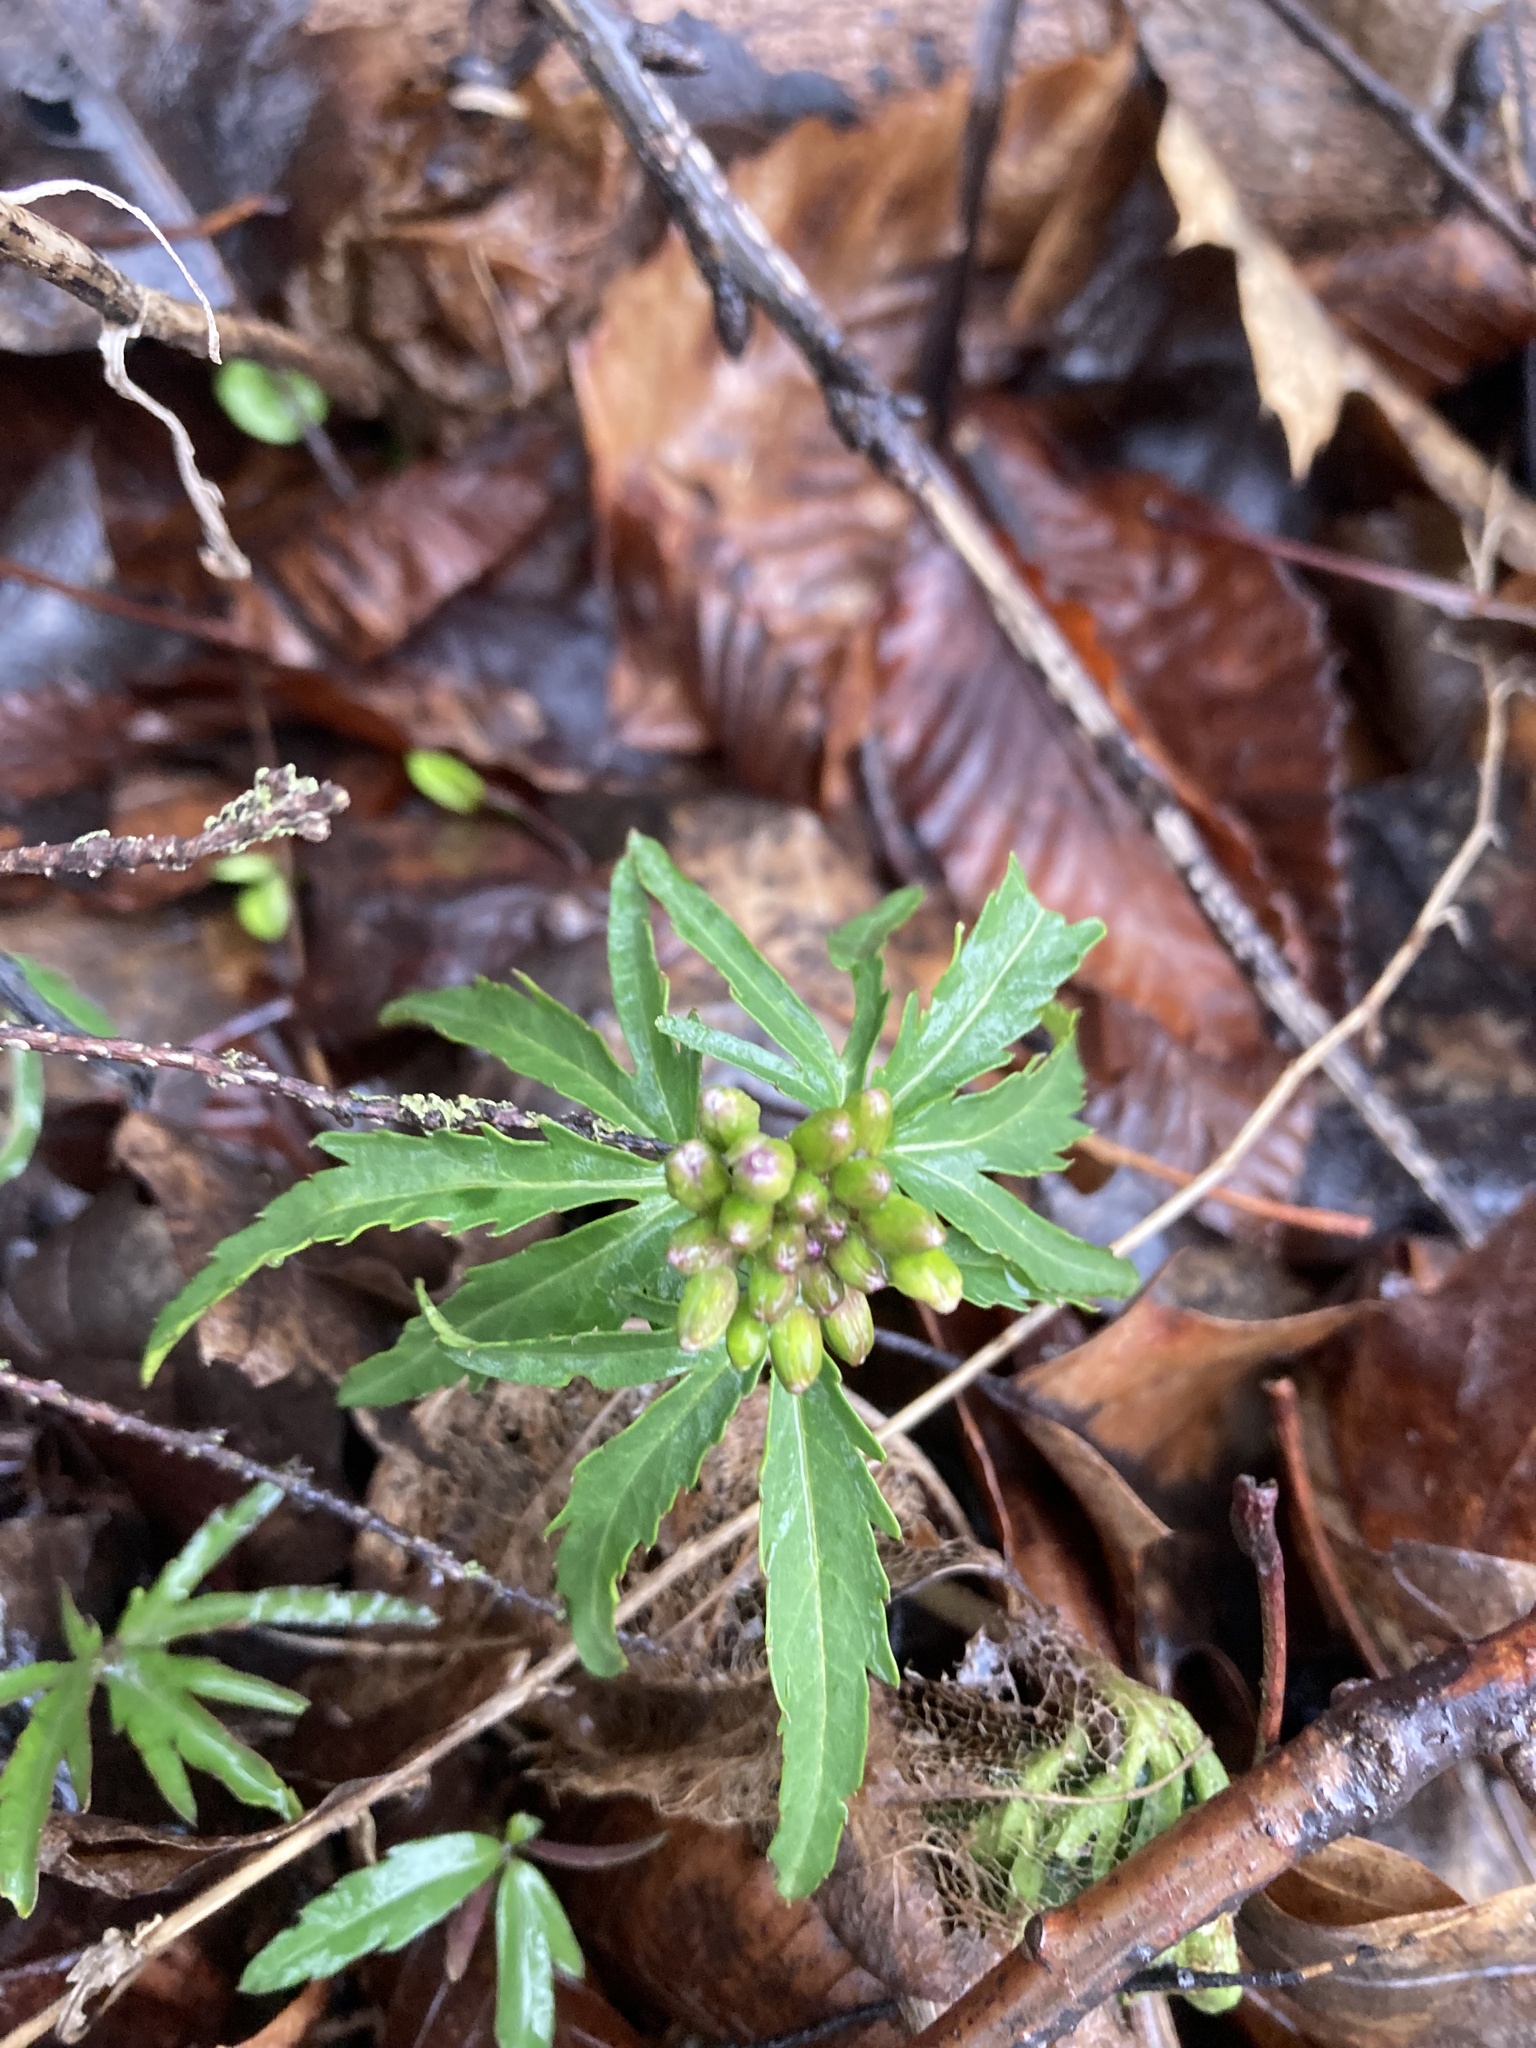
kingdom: Plantae
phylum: Tracheophyta
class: Magnoliopsida
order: Brassicales
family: Brassicaceae
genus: Cardamine
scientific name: Cardamine concatenata
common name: Cut-leaf toothcup
